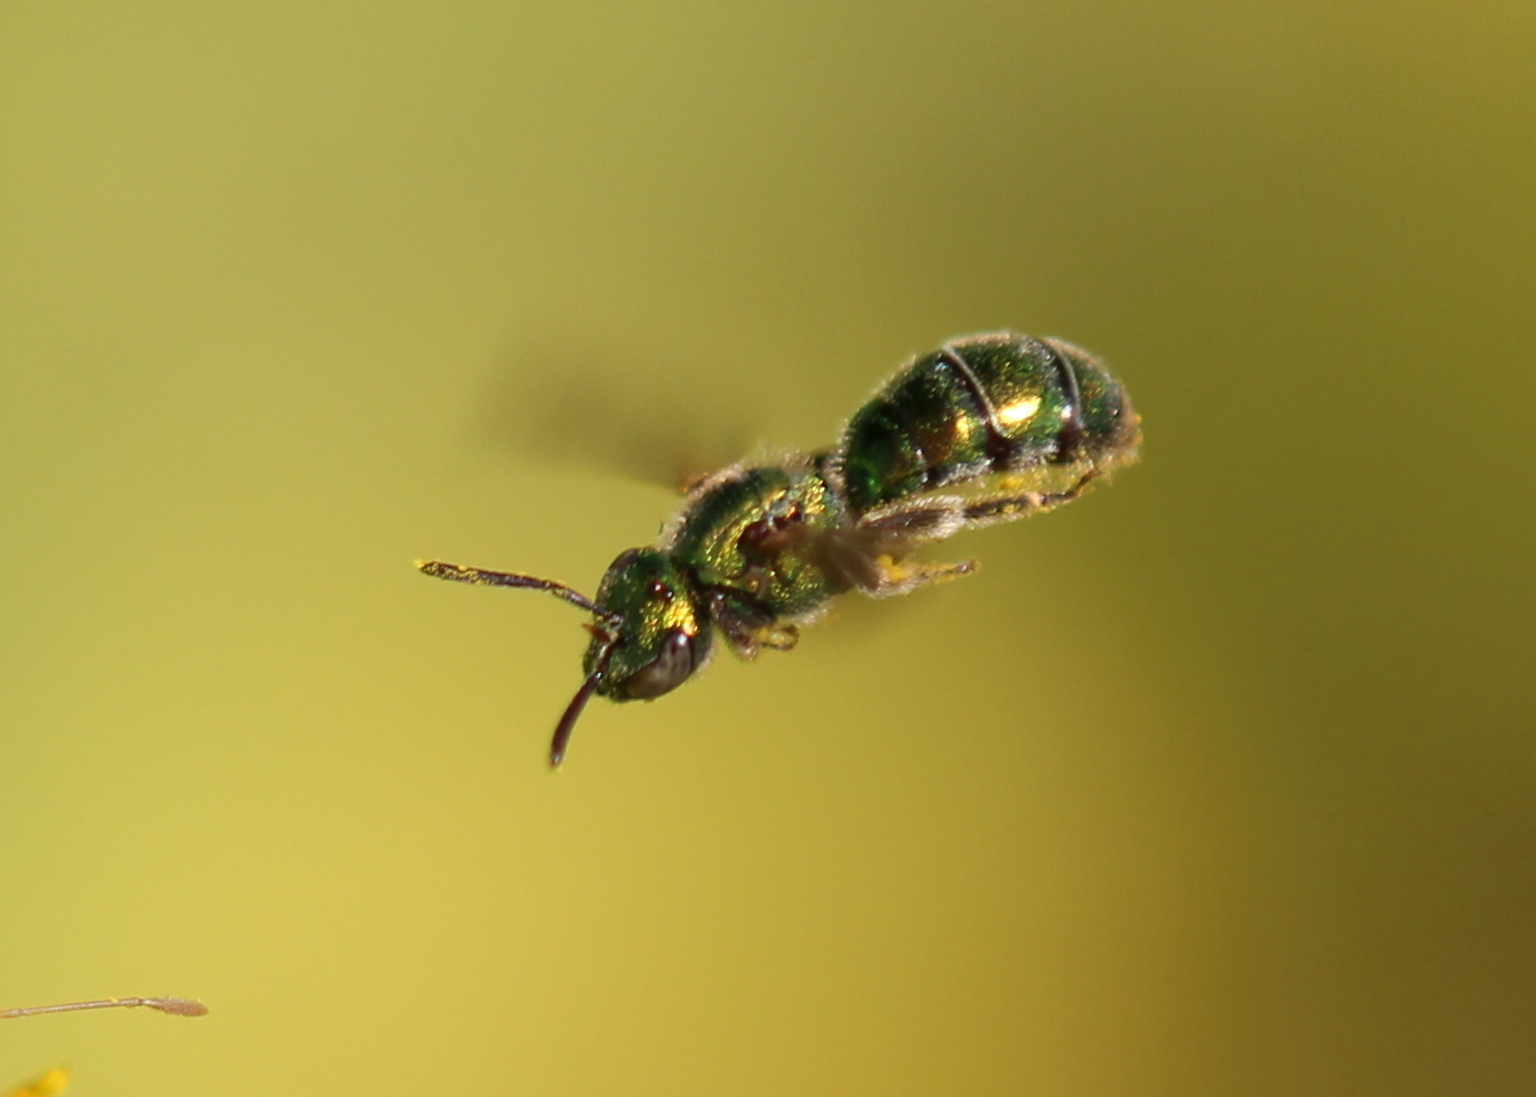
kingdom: Animalia
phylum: Arthropoda
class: Insecta
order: Hymenoptera
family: Halictidae
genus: Augochlorella
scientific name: Augochlorella aurata
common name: Golden sweat bee
